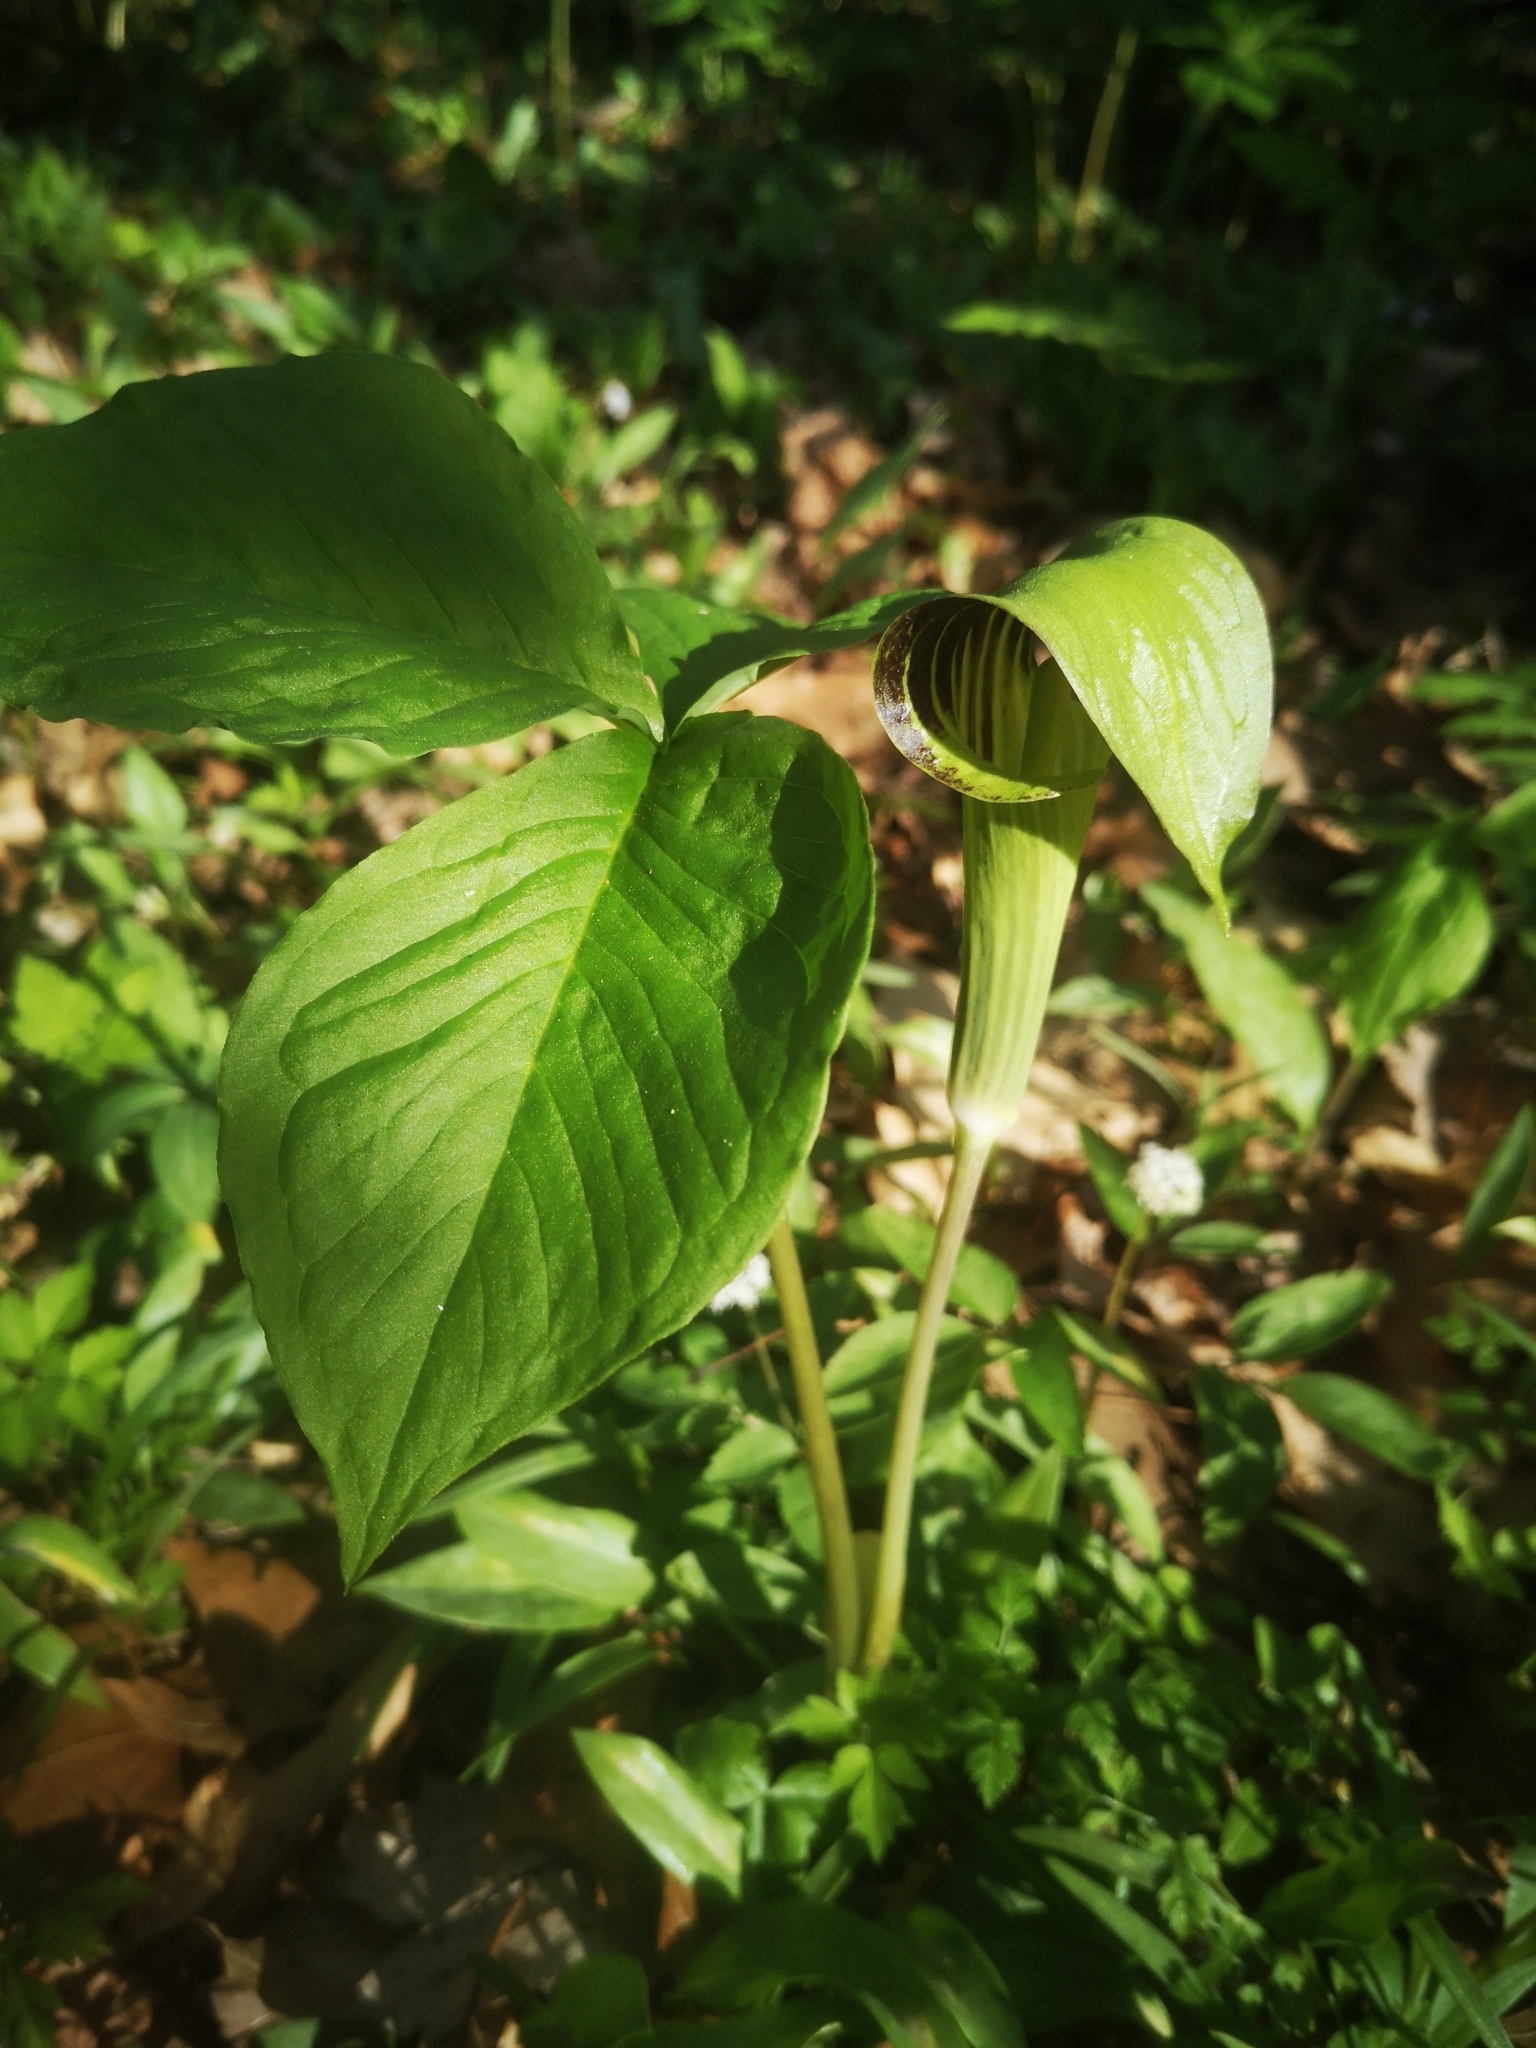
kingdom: Plantae
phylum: Tracheophyta
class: Liliopsida
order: Alismatales
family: Araceae
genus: Arisaema
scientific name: Arisaema triphyllum
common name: Jack-in-the-pulpit
